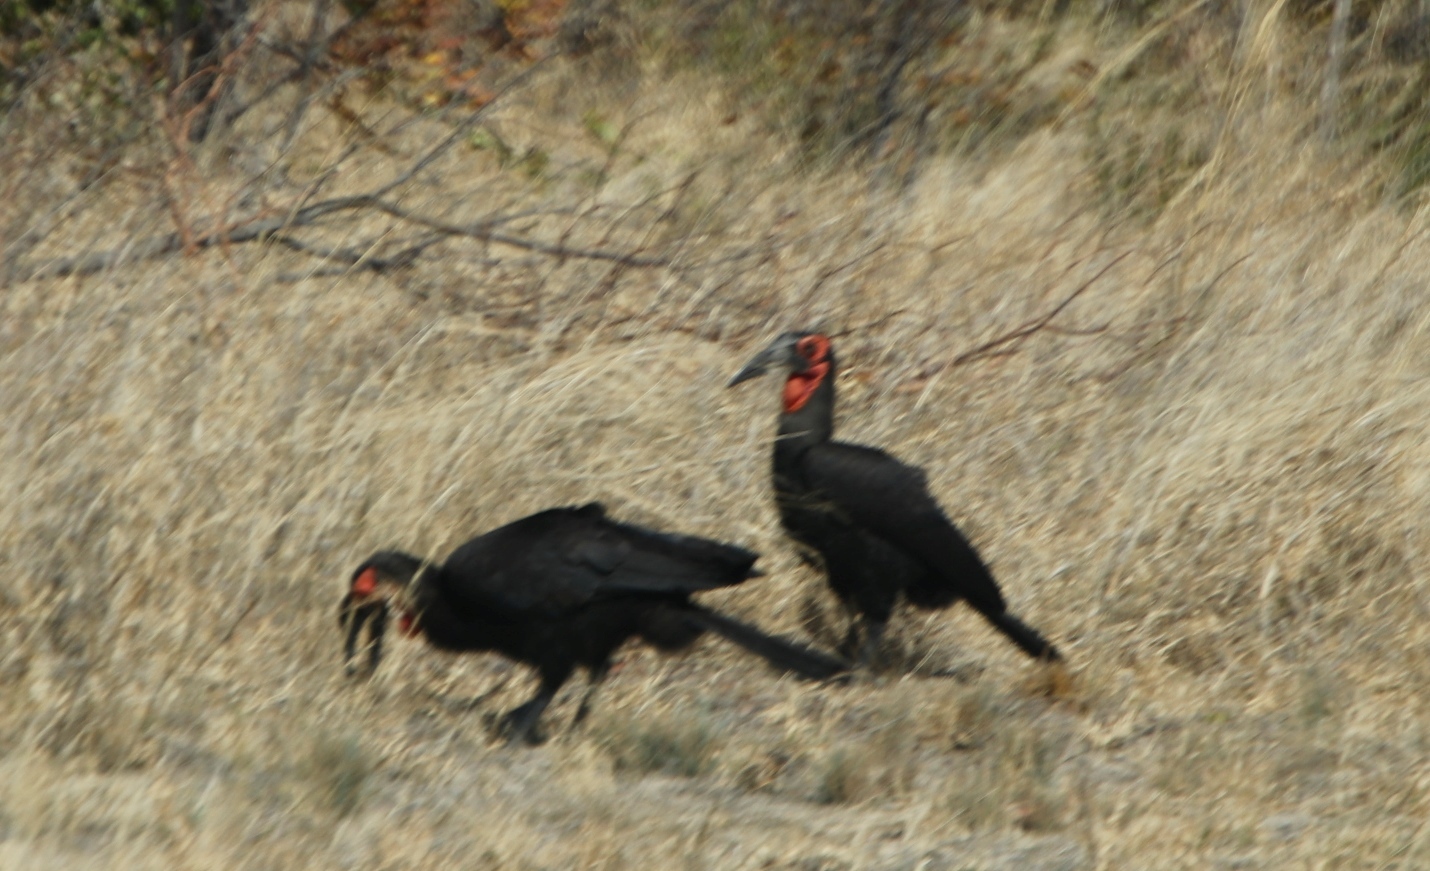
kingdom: Animalia
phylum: Chordata
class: Aves
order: Bucerotiformes
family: Bucorvidae
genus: Bucorvus
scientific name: Bucorvus leadbeateri
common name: Southern ground-hornbill
